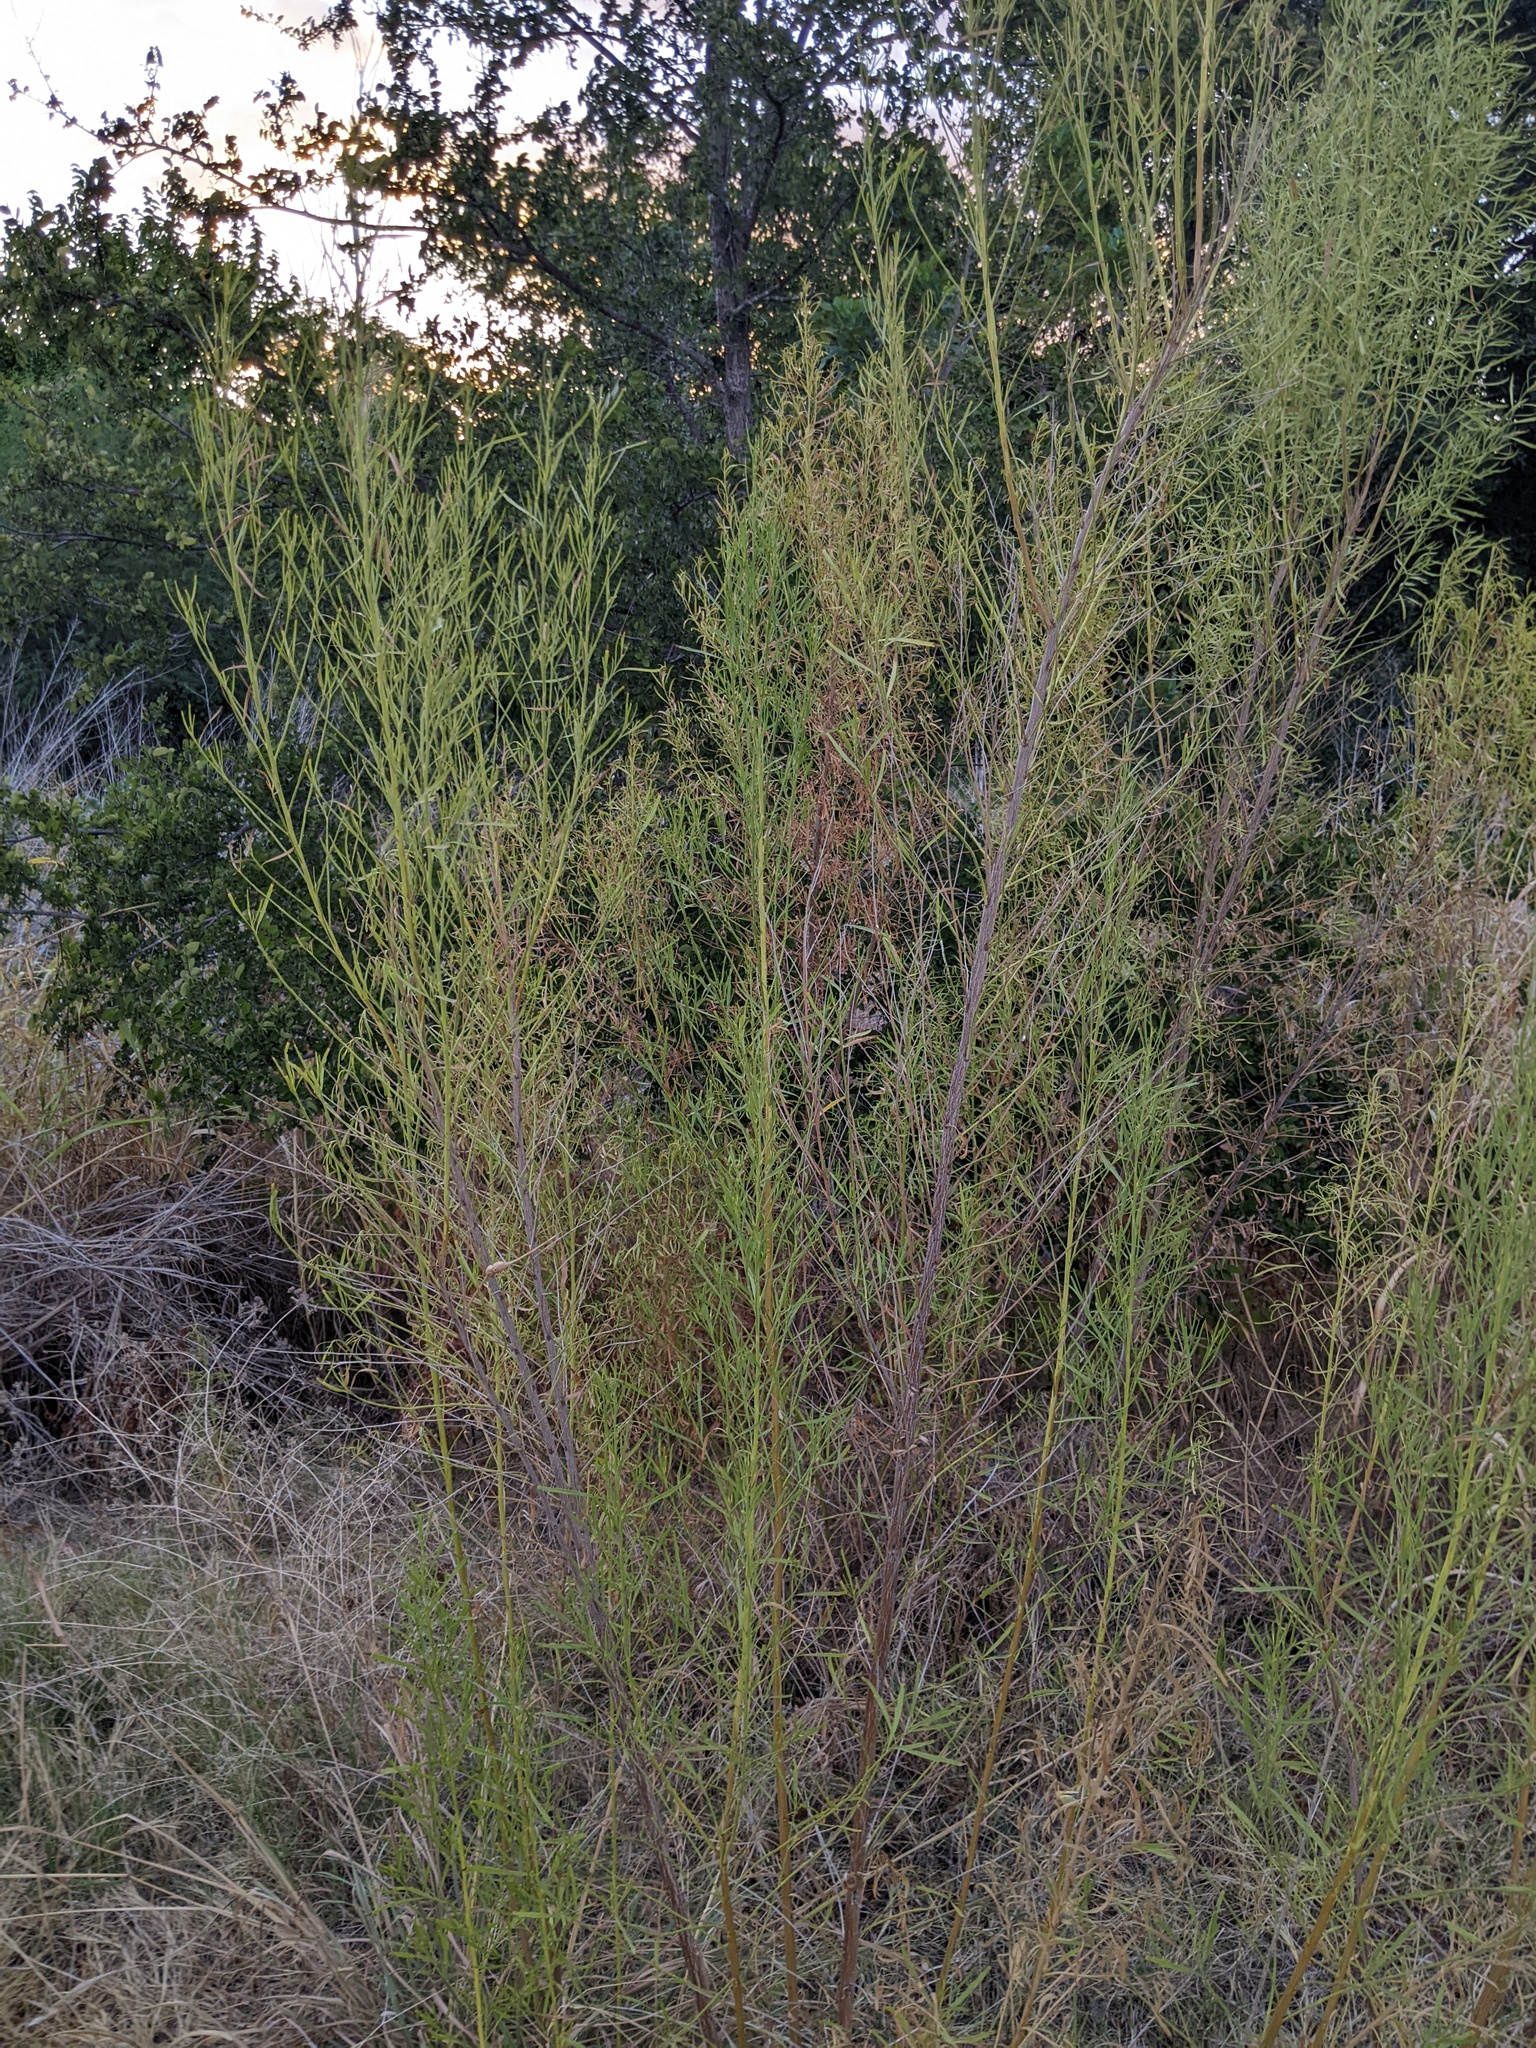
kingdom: Plantae
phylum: Tracheophyta
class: Magnoliopsida
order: Asterales
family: Asteraceae
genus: Baccharis
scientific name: Baccharis neglecta
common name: Roosevelt-weed
